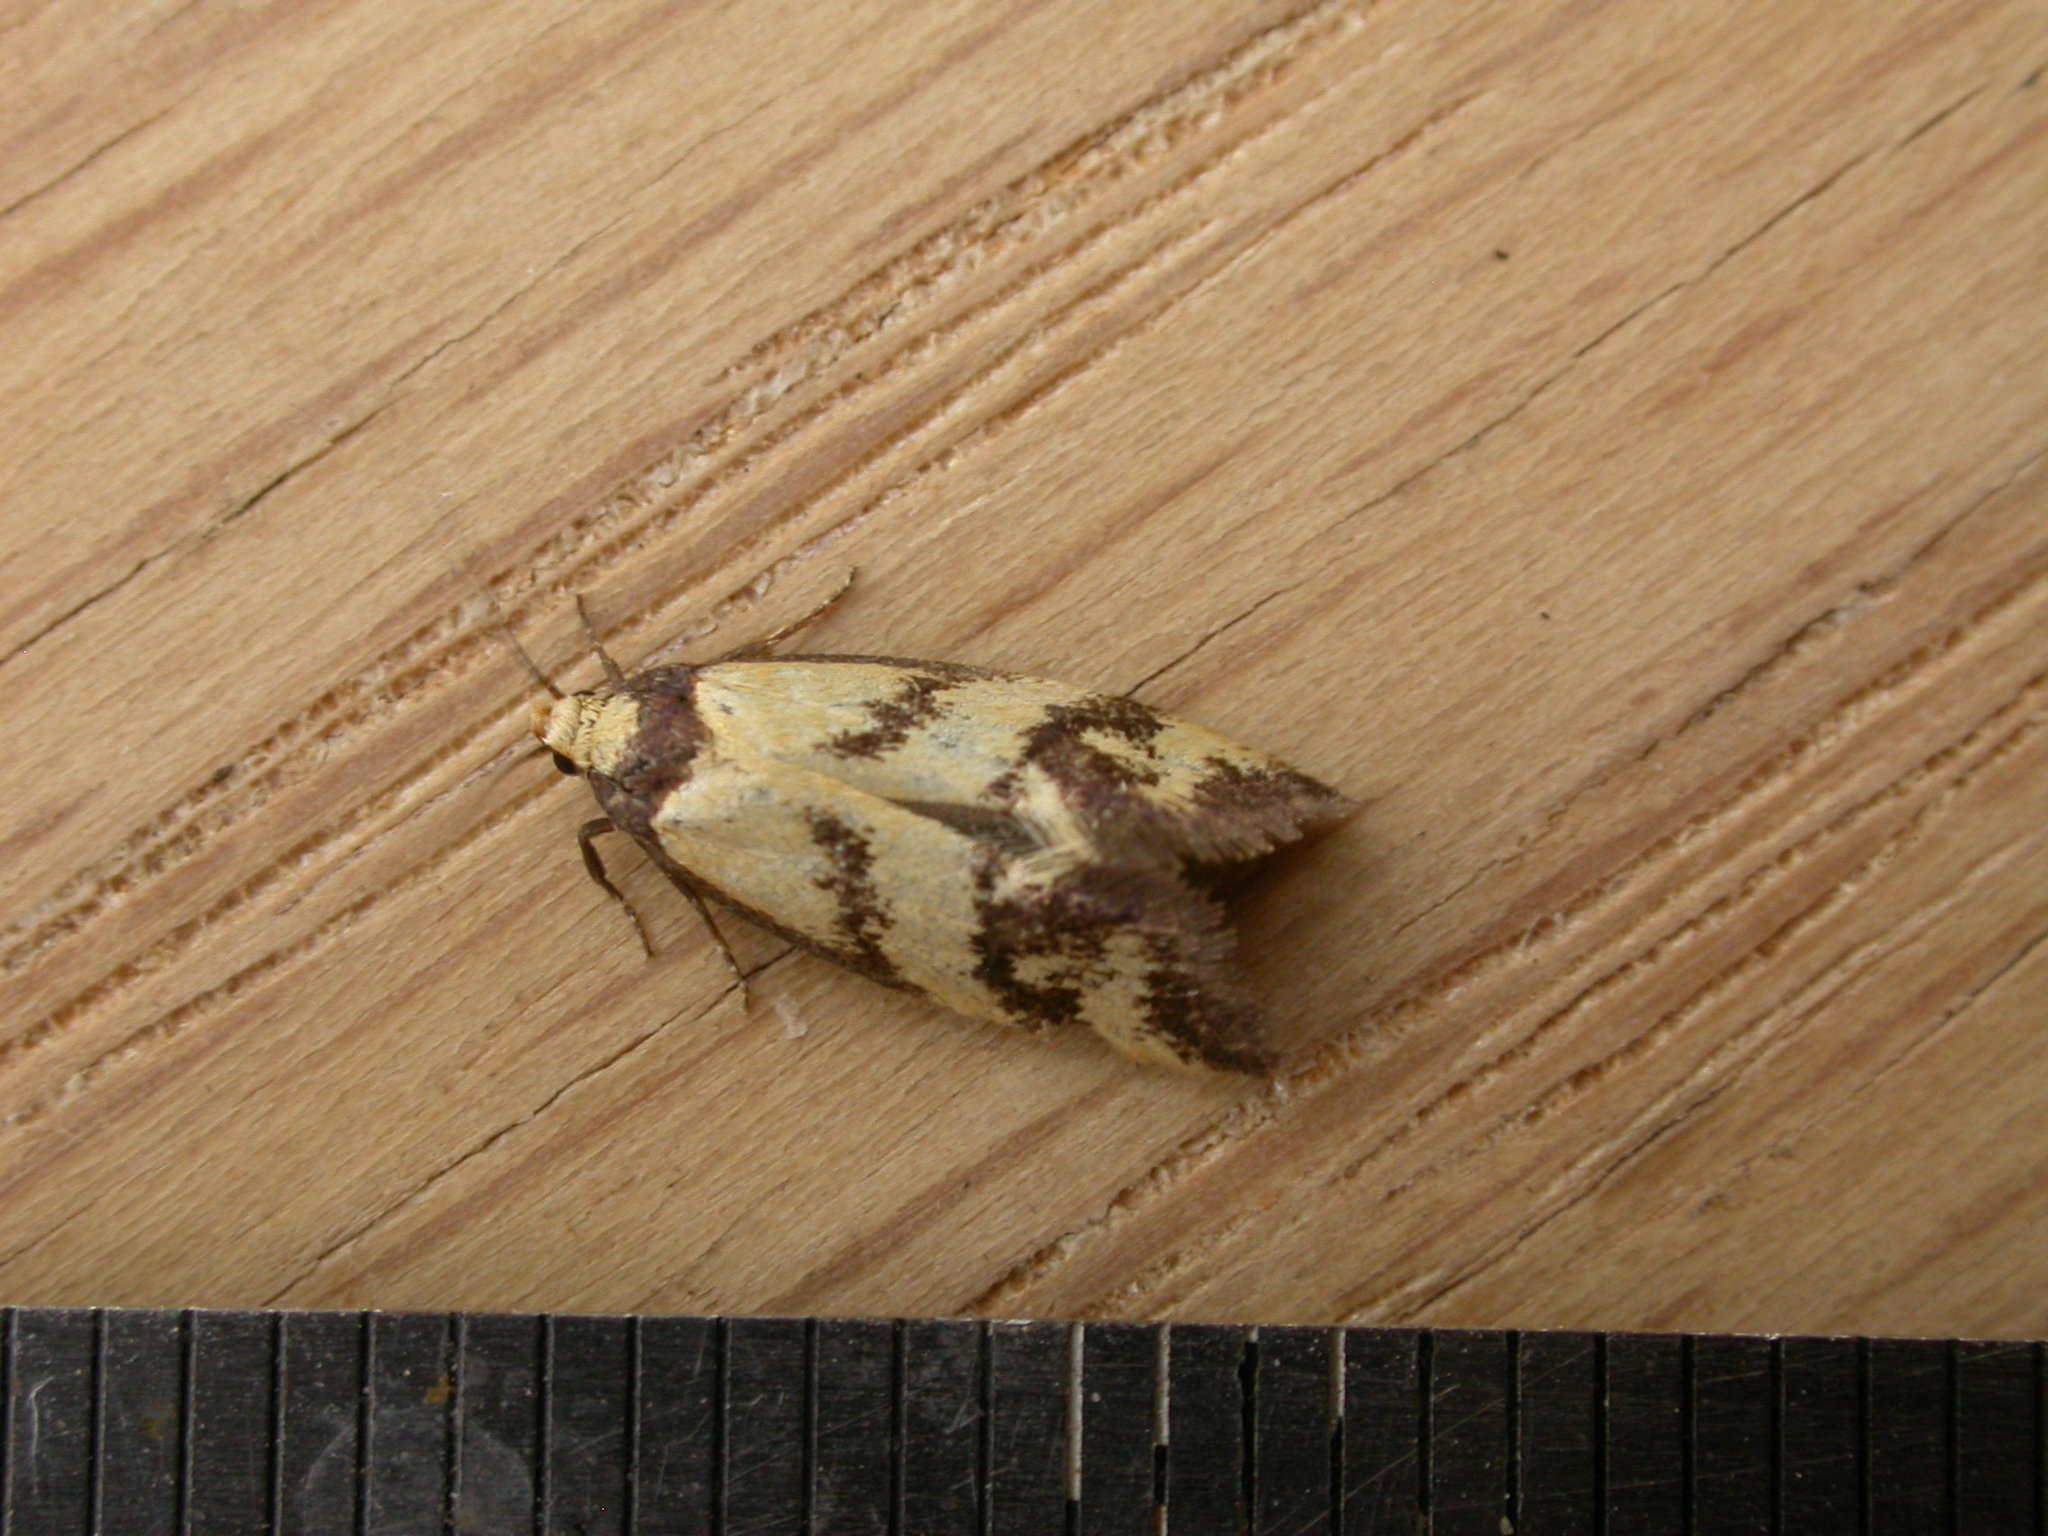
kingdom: Animalia
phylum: Arthropoda
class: Insecta
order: Lepidoptera
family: Oecophoridae
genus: Olbonoma
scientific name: Olbonoma triptycha
